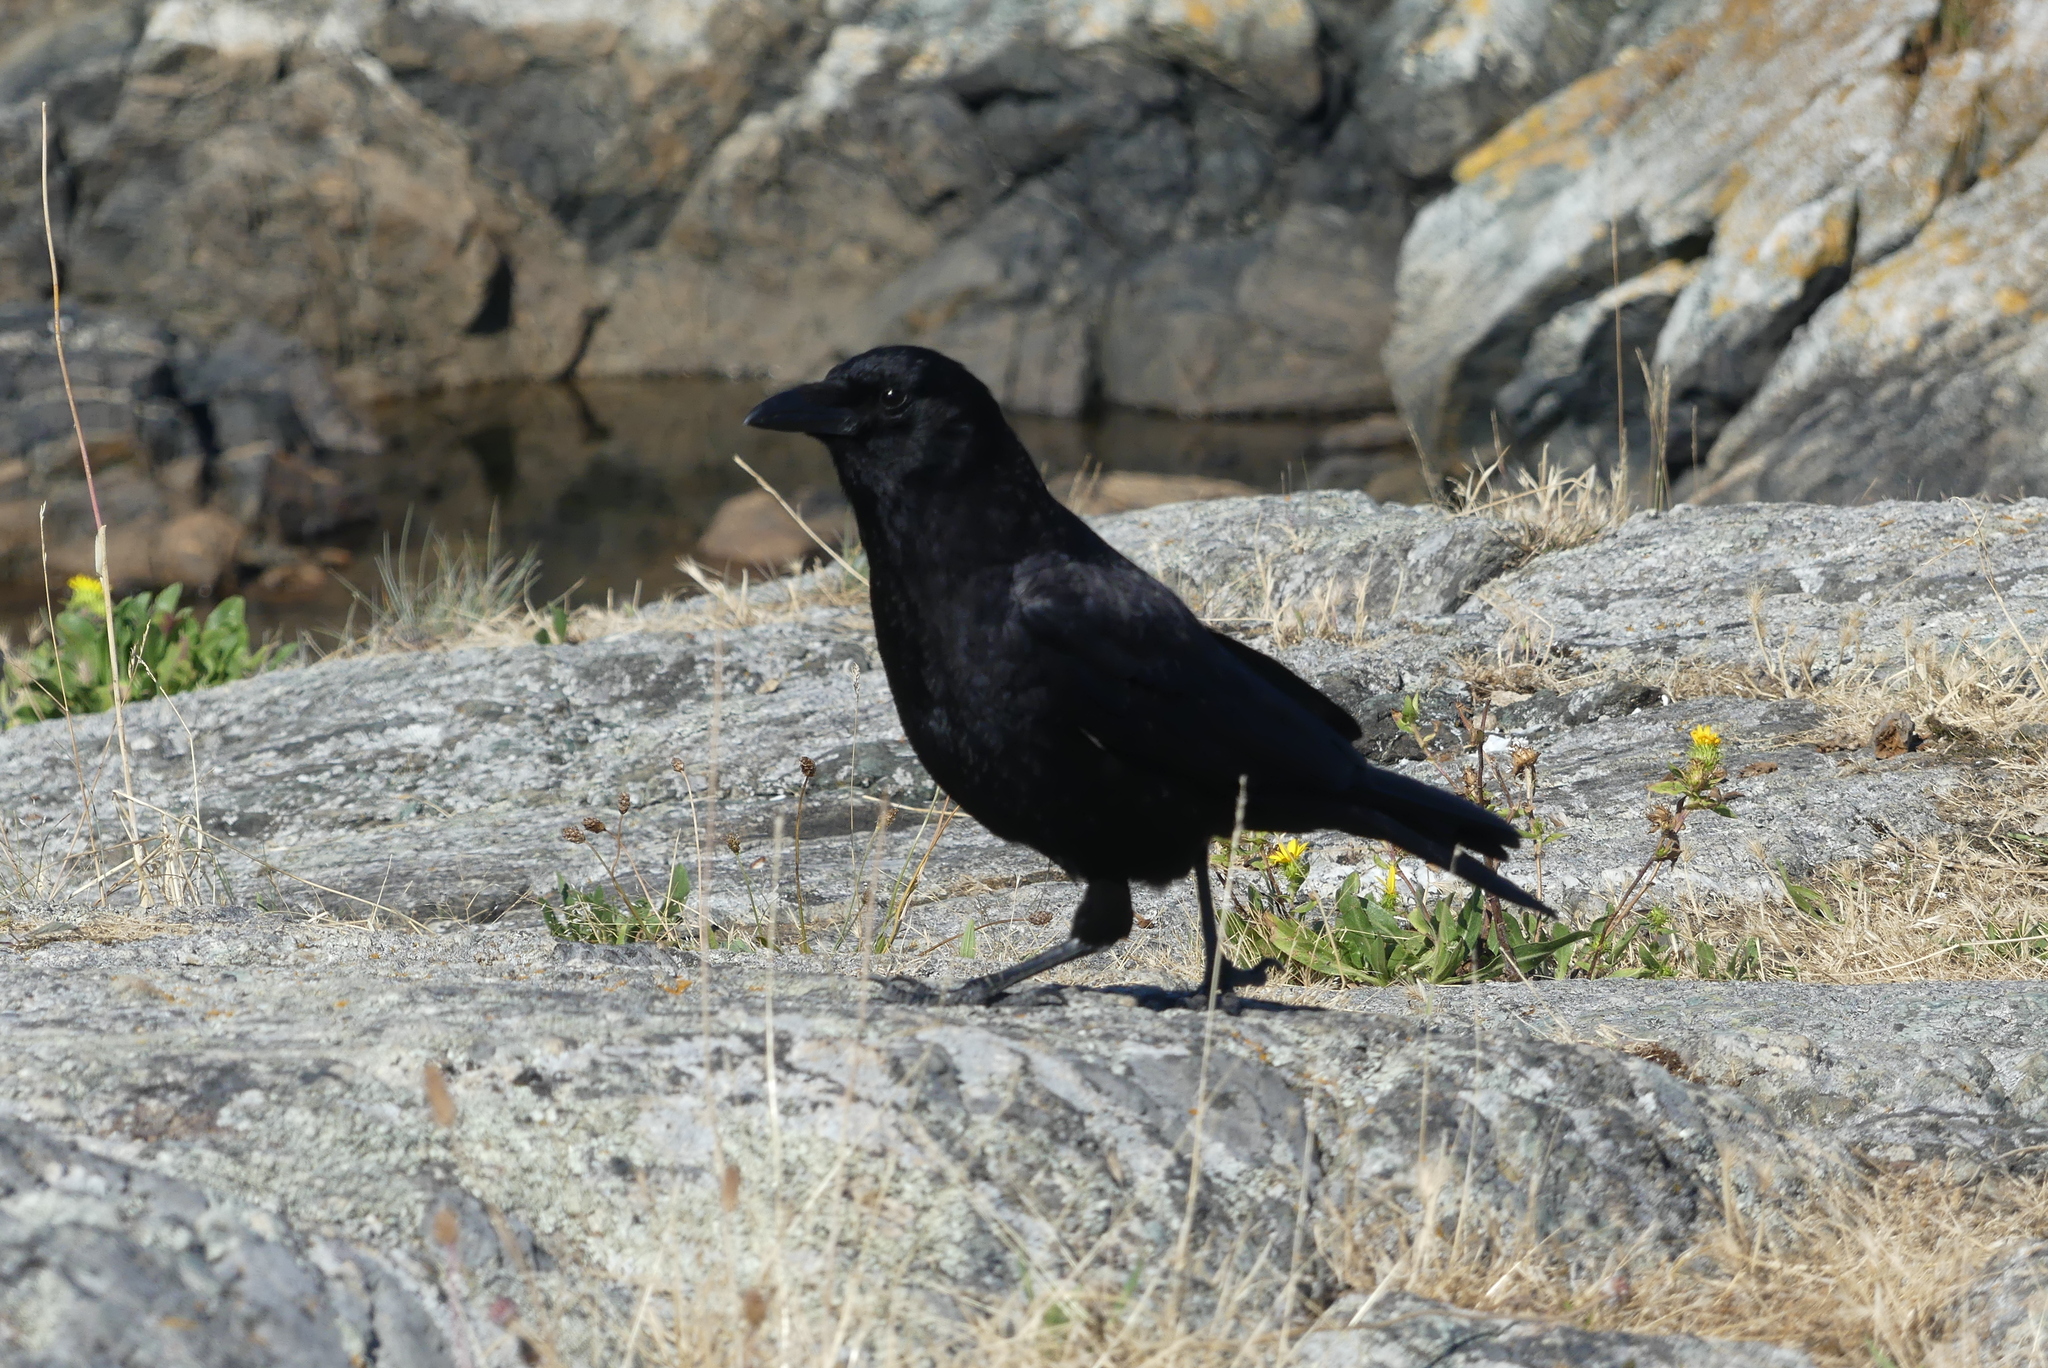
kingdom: Animalia
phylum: Chordata
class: Aves
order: Passeriformes
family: Corvidae
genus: Corvus
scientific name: Corvus brachyrhynchos
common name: American crow
